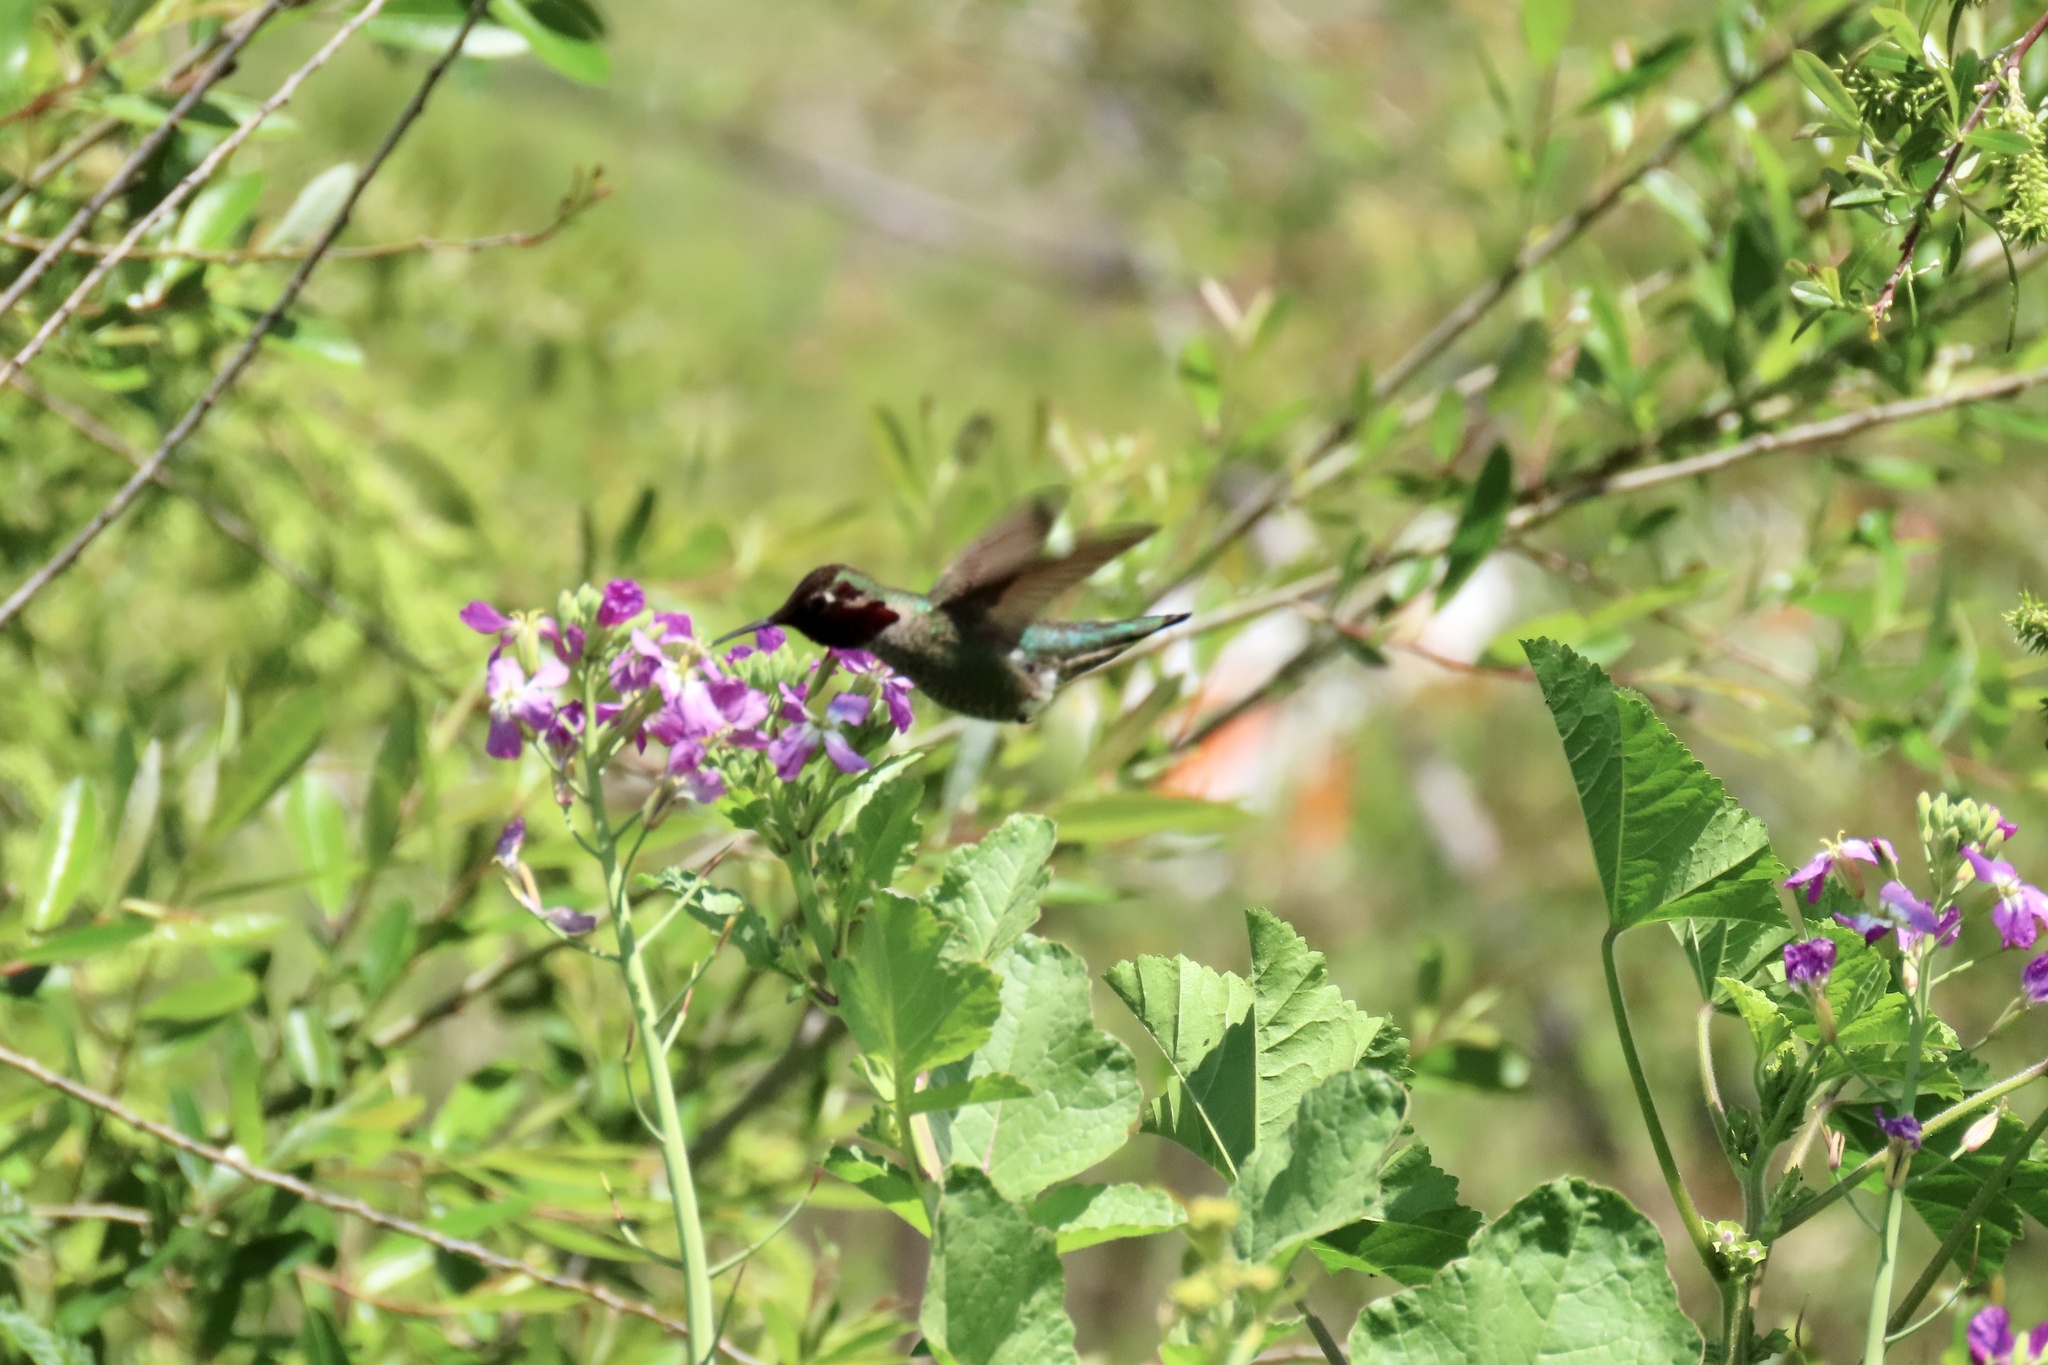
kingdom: Animalia
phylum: Chordata
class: Aves
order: Apodiformes
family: Trochilidae
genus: Calypte
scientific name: Calypte anna
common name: Anna's hummingbird
